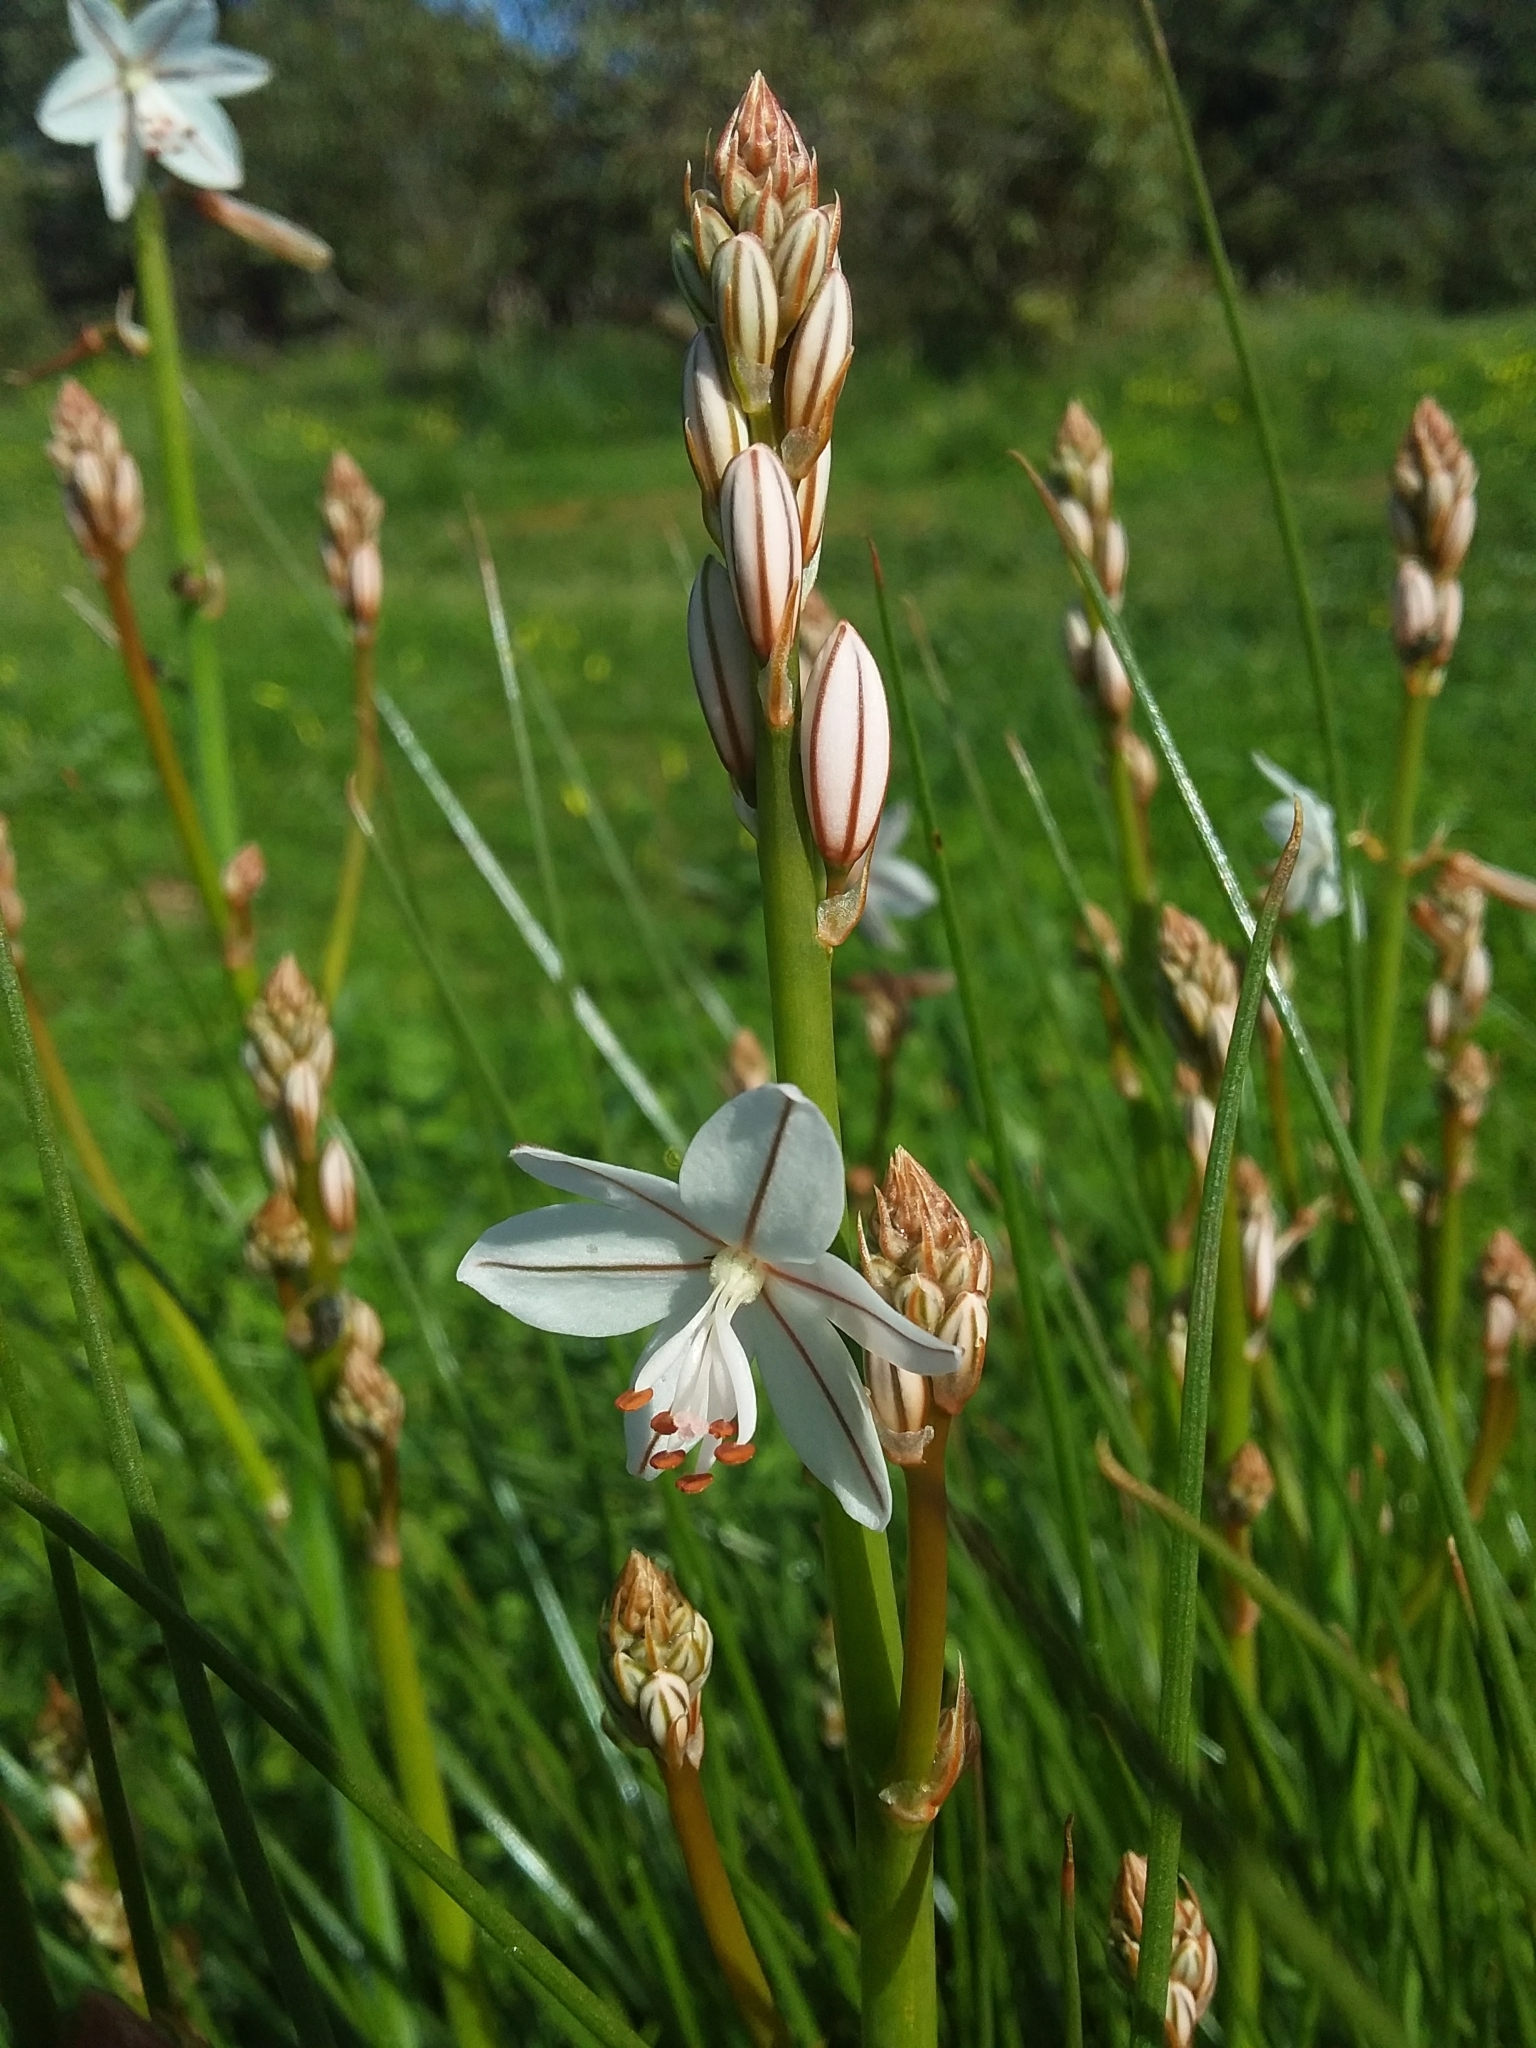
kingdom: Plantae
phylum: Tracheophyta
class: Liliopsida
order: Asparagales
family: Asphodelaceae
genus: Asphodelus
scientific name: Asphodelus fistulosus
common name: Onionweed
